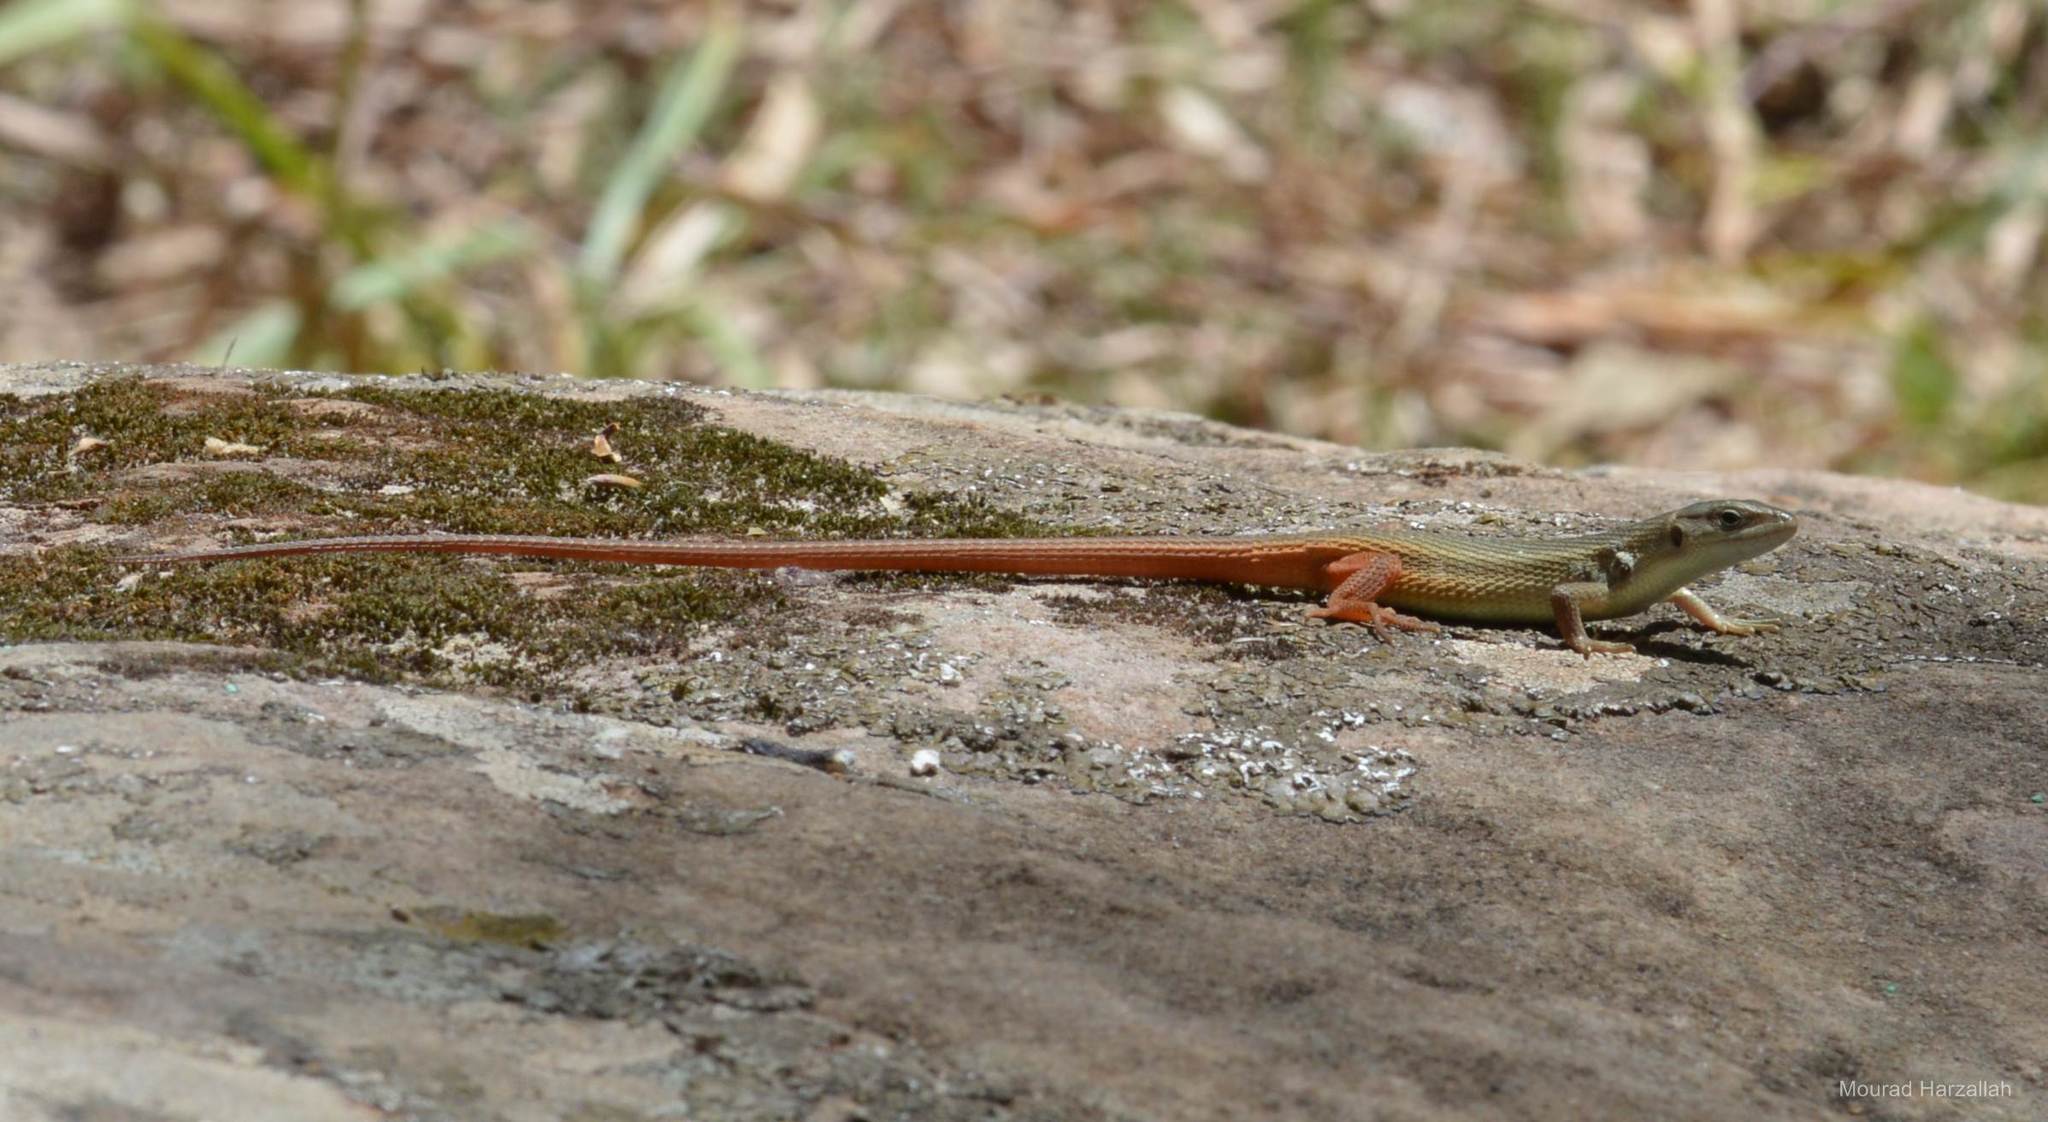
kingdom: Animalia
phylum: Chordata
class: Squamata
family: Lacertidae
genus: Psammodromus
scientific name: Psammodromus algirus
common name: Algerian psammodromus
